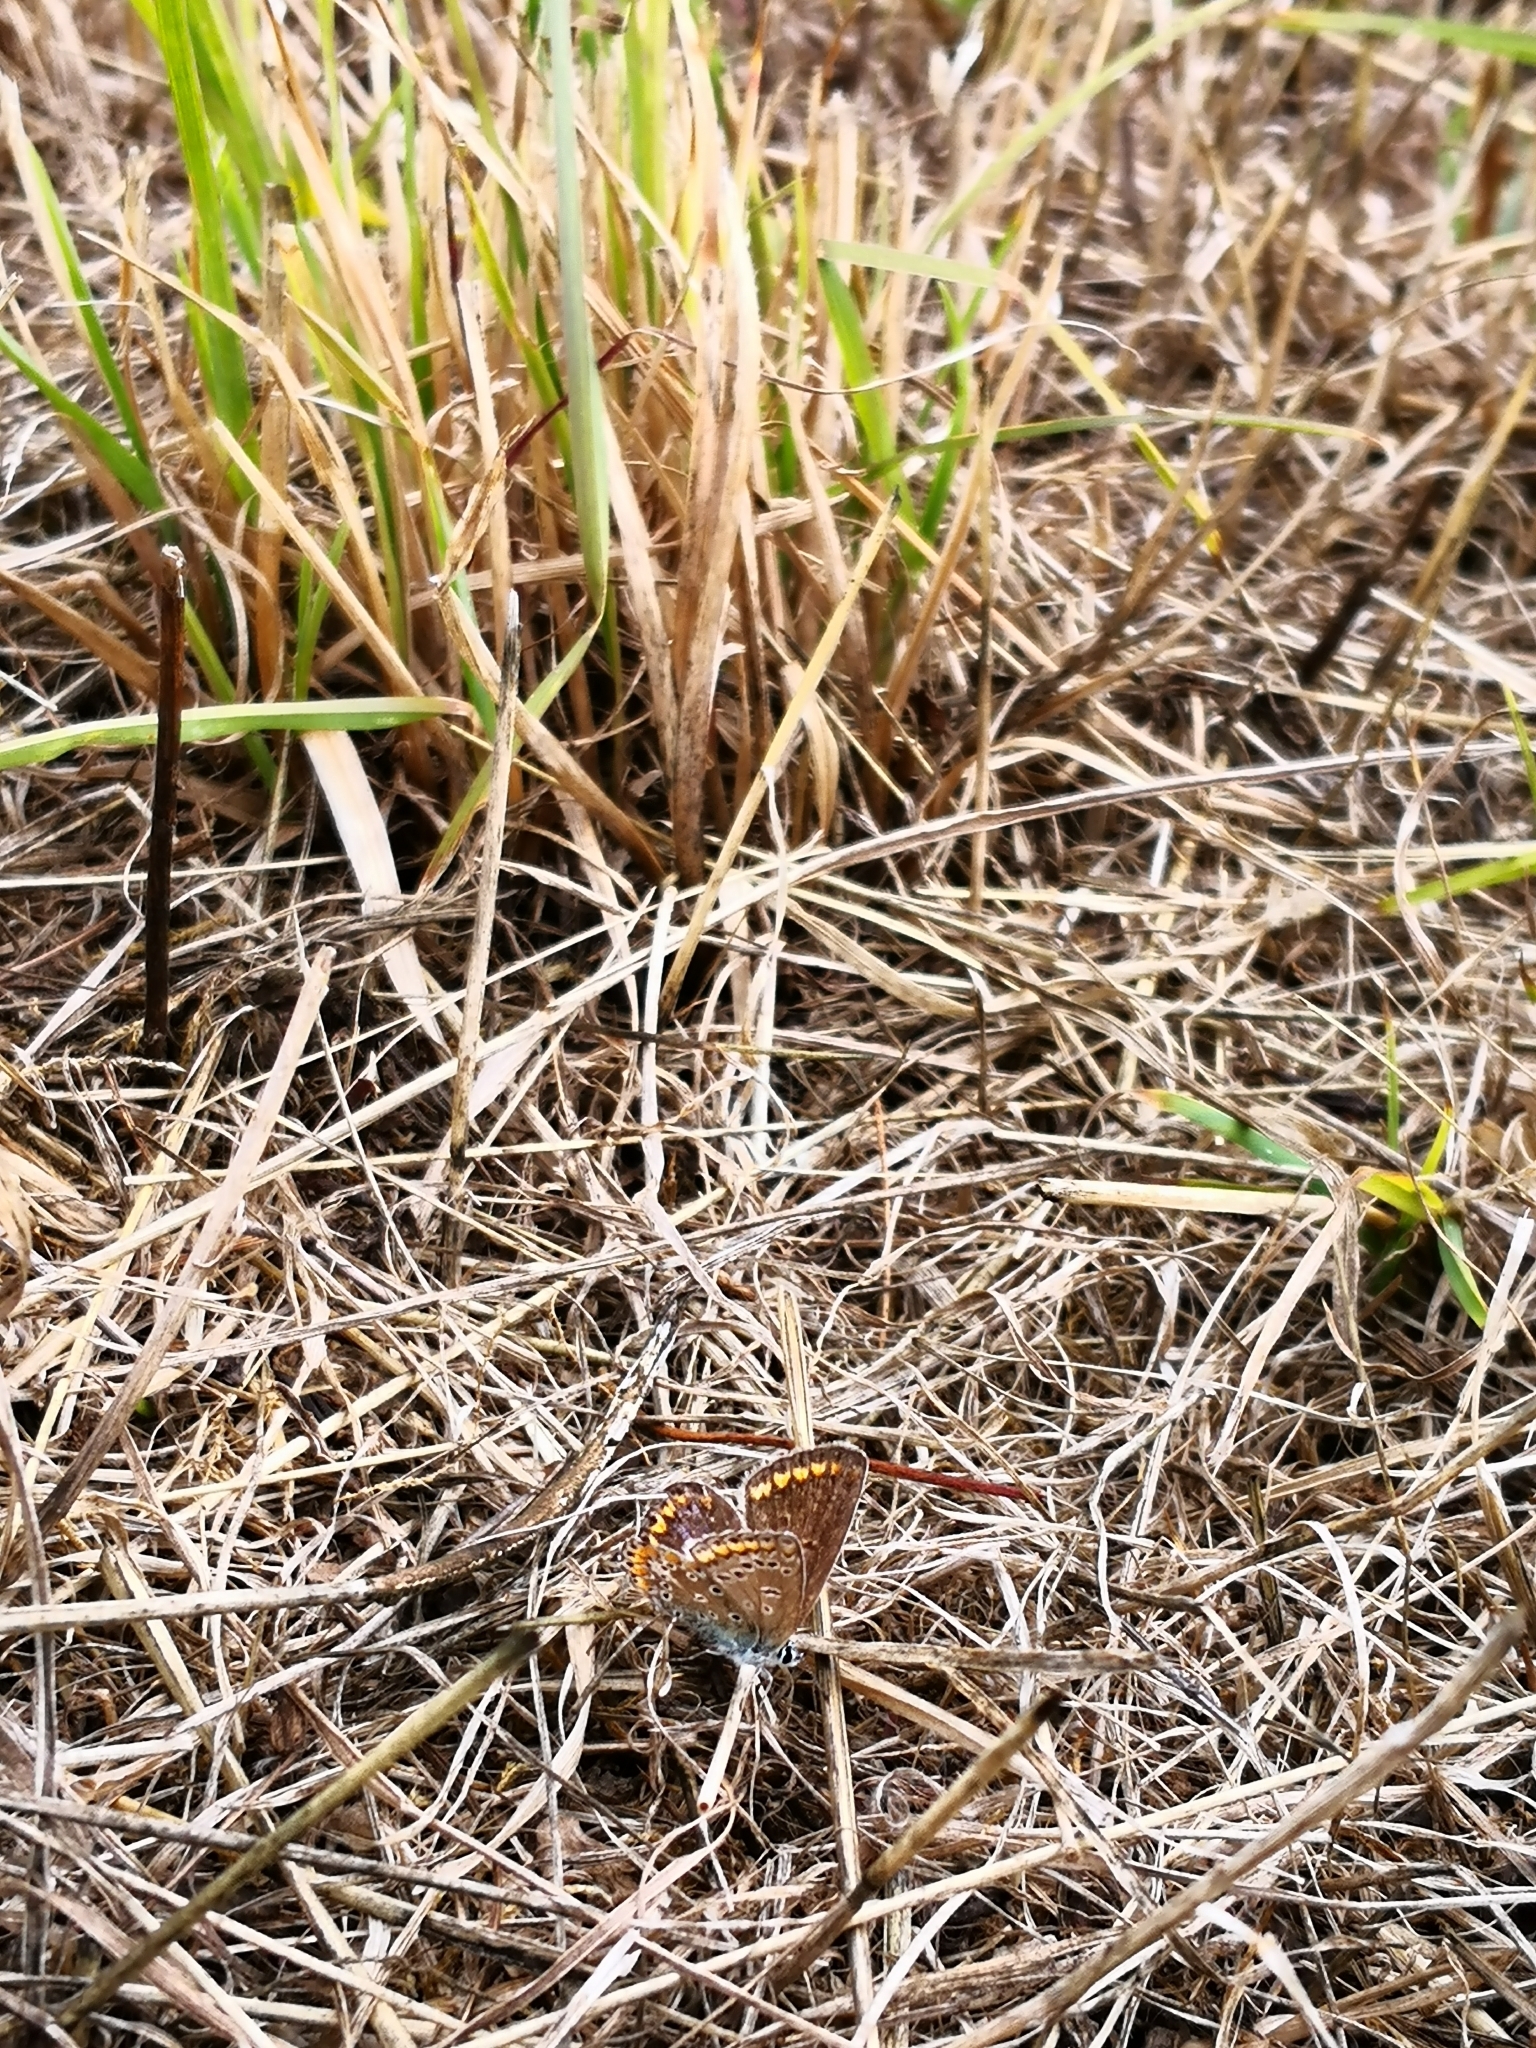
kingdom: Animalia
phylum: Arthropoda
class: Insecta
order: Lepidoptera
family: Lycaenidae
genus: Polyommatus
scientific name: Polyommatus icarus
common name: Common blue
